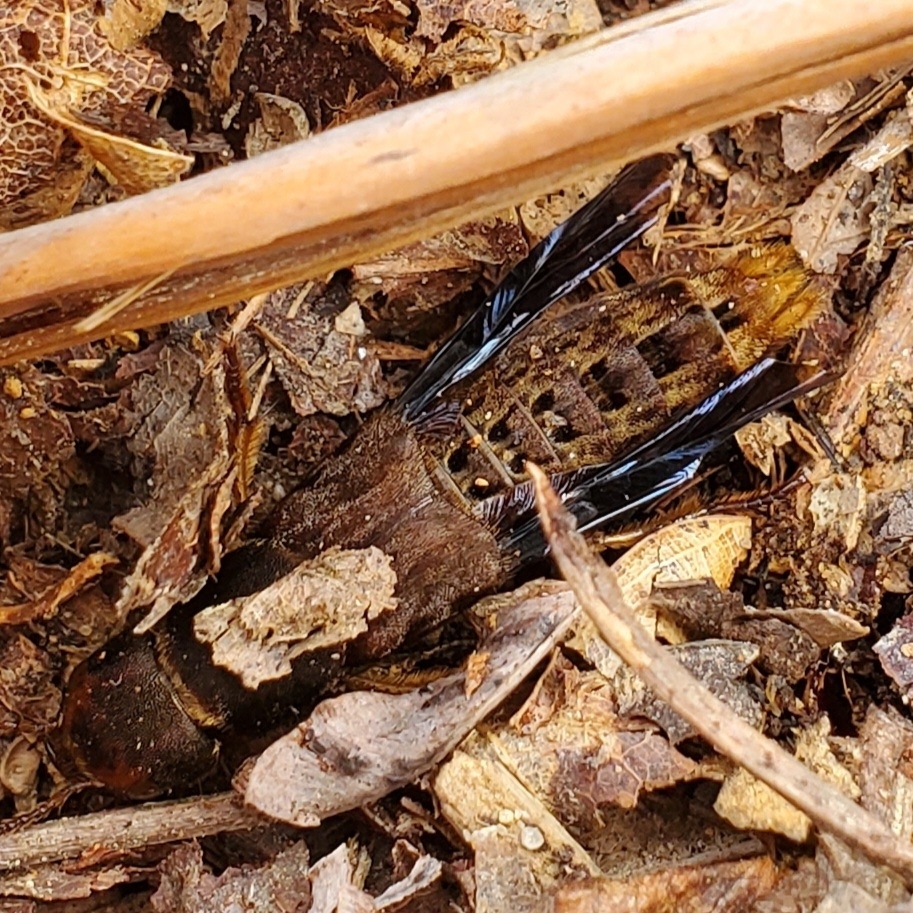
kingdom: Animalia
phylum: Arthropoda
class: Insecta
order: Coleoptera
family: Staphylinidae
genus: Platydracus
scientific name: Platydracus maculosus
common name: Brown rove beetle
